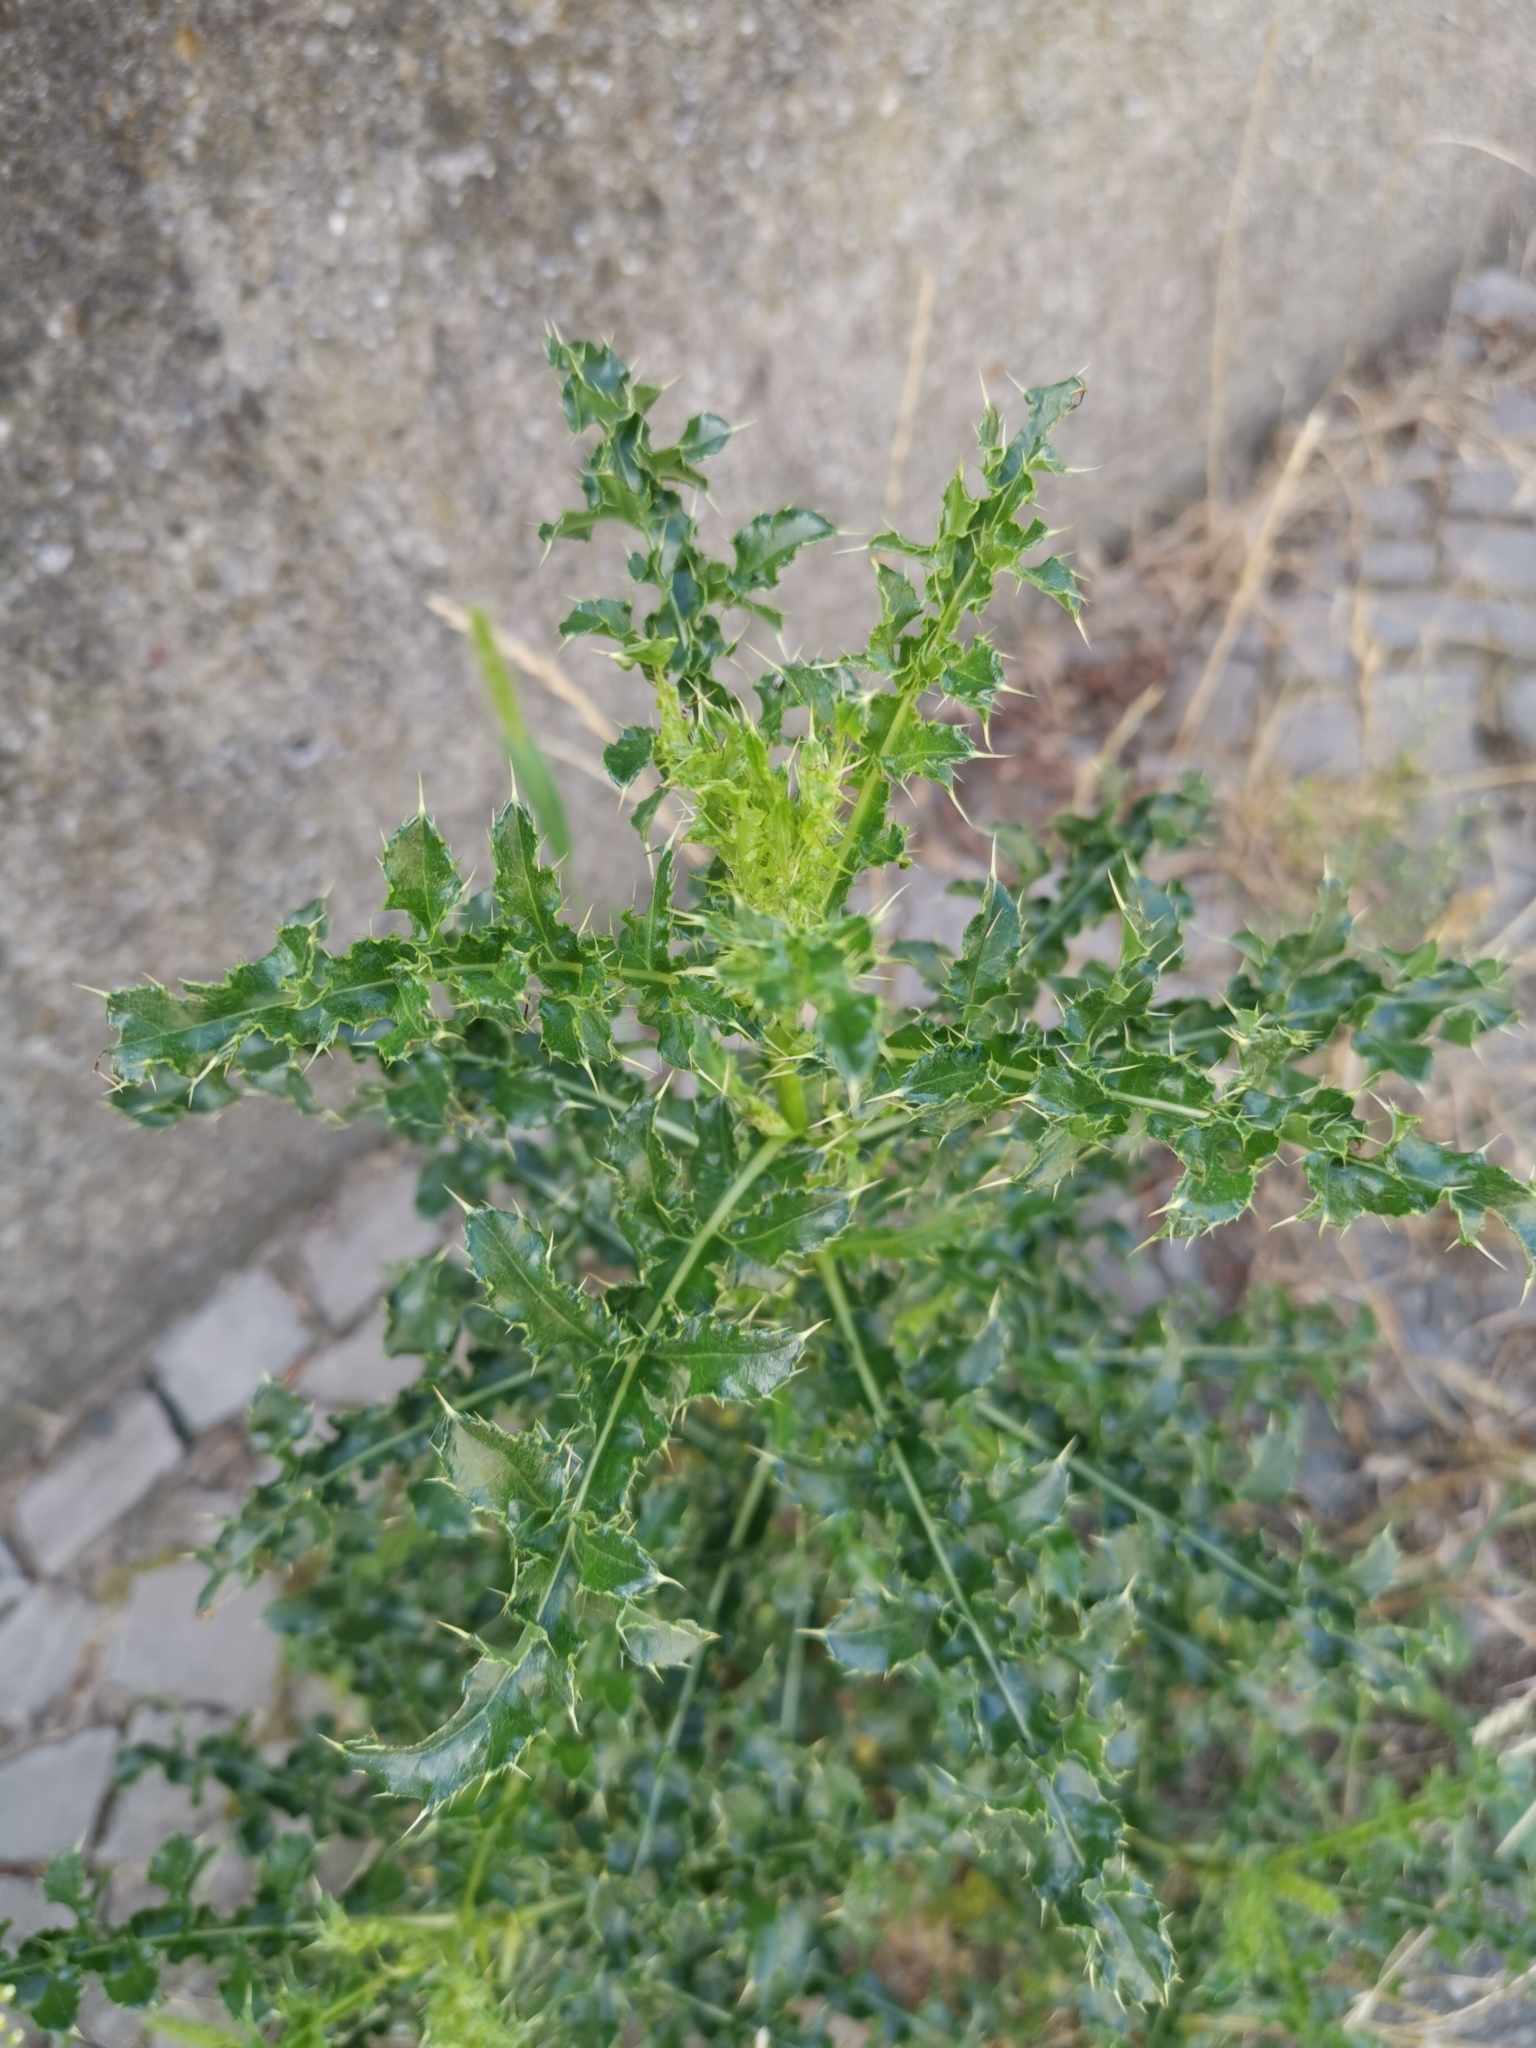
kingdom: Plantae
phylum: Tracheophyta
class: Magnoliopsida
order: Asterales
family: Asteraceae
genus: Cirsium
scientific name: Cirsium arvense
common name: Creeping thistle
